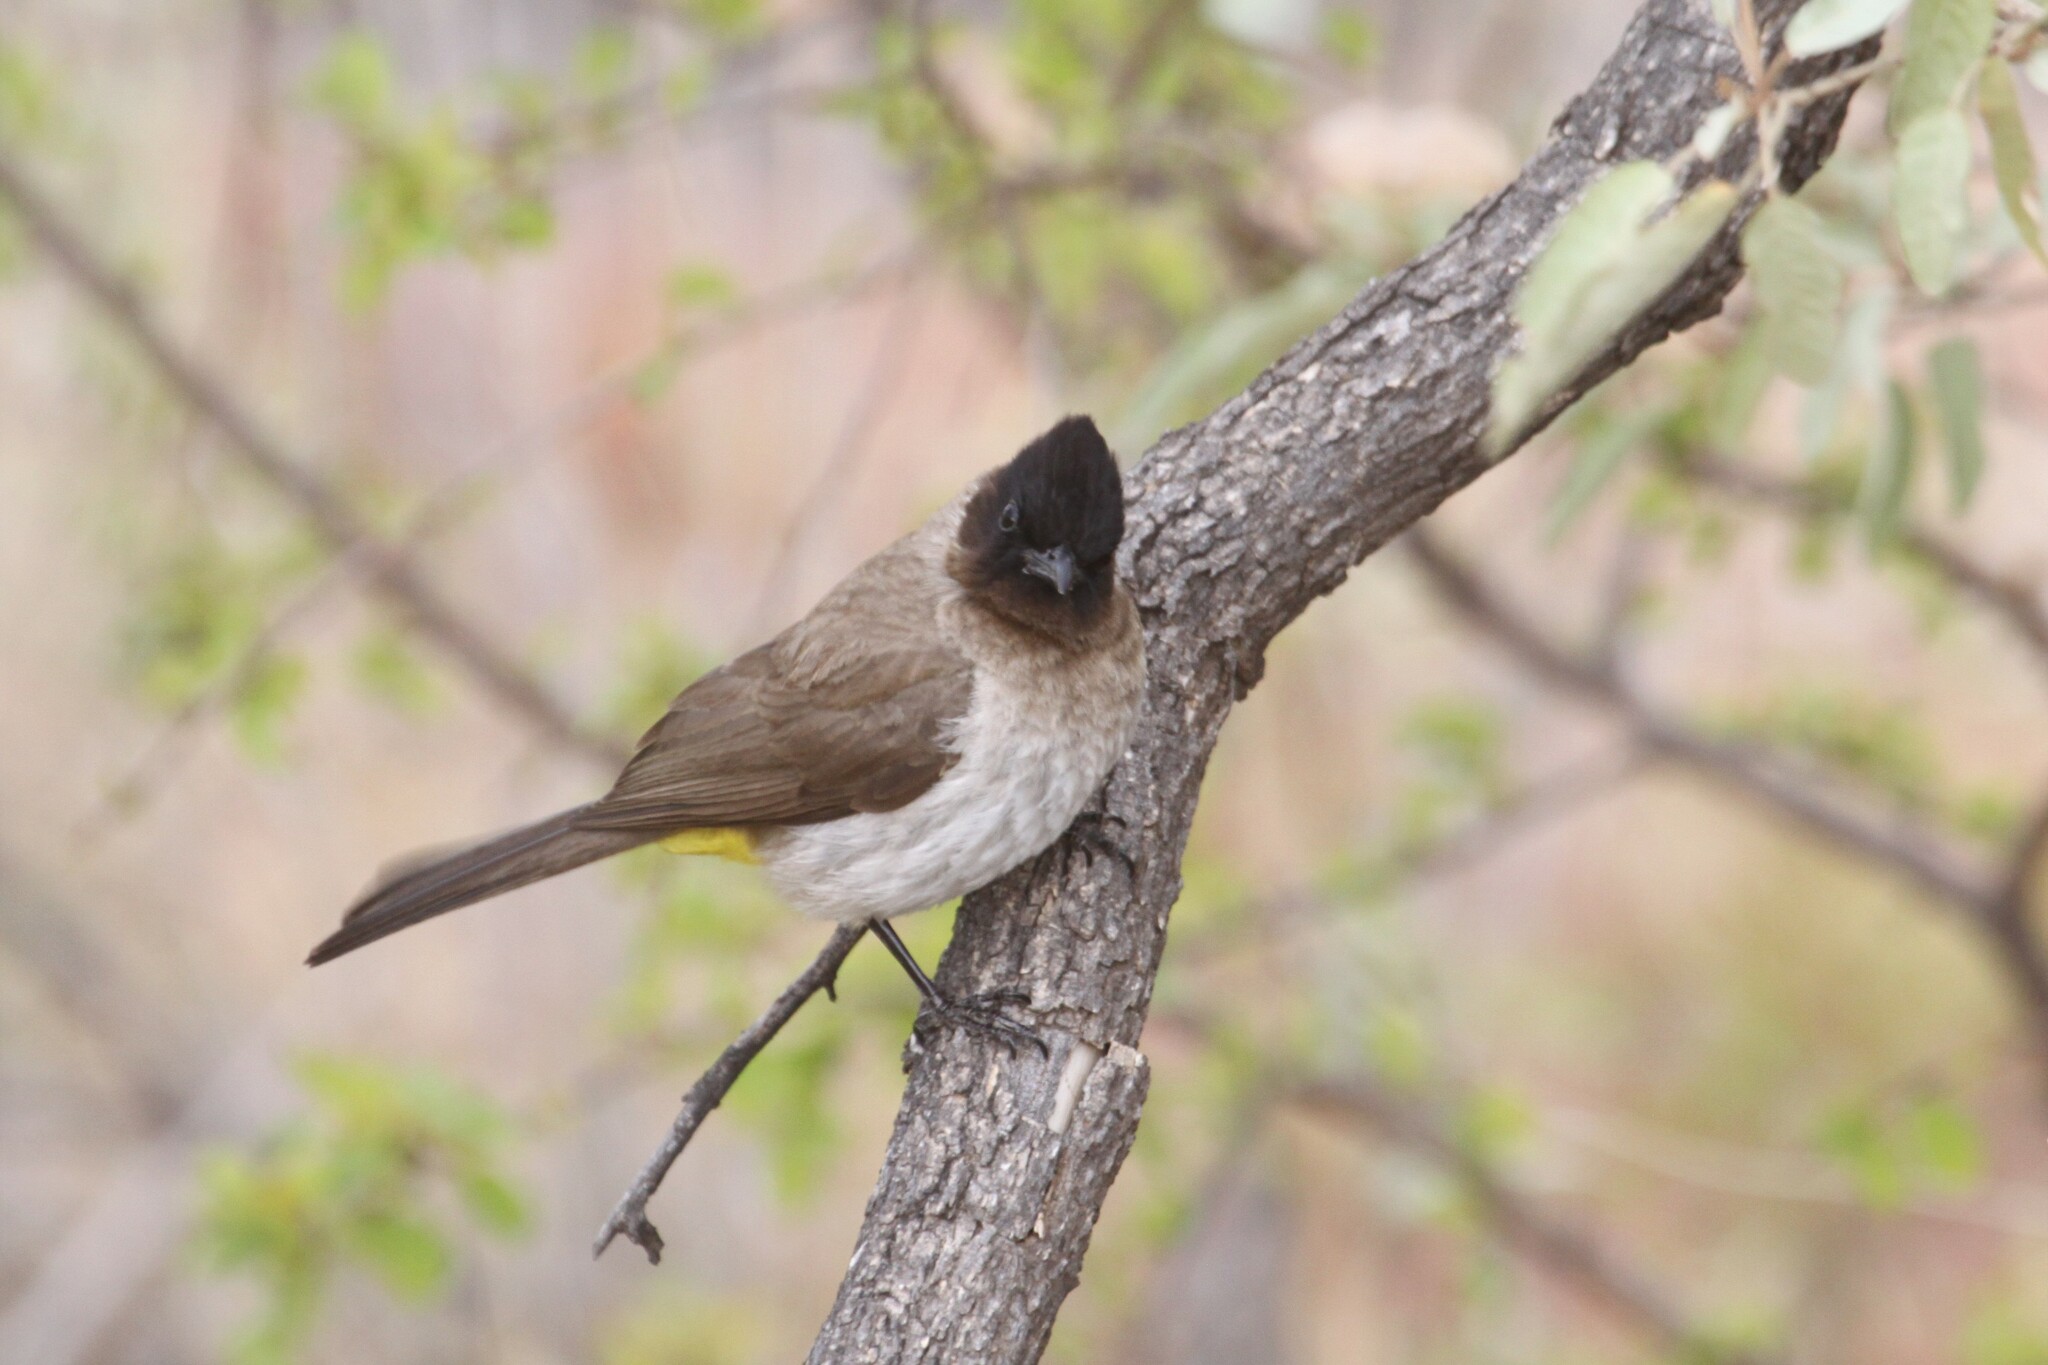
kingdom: Animalia
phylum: Chordata
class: Aves
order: Passeriformes
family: Pycnonotidae
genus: Pycnonotus
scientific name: Pycnonotus barbatus
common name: Common bulbul
